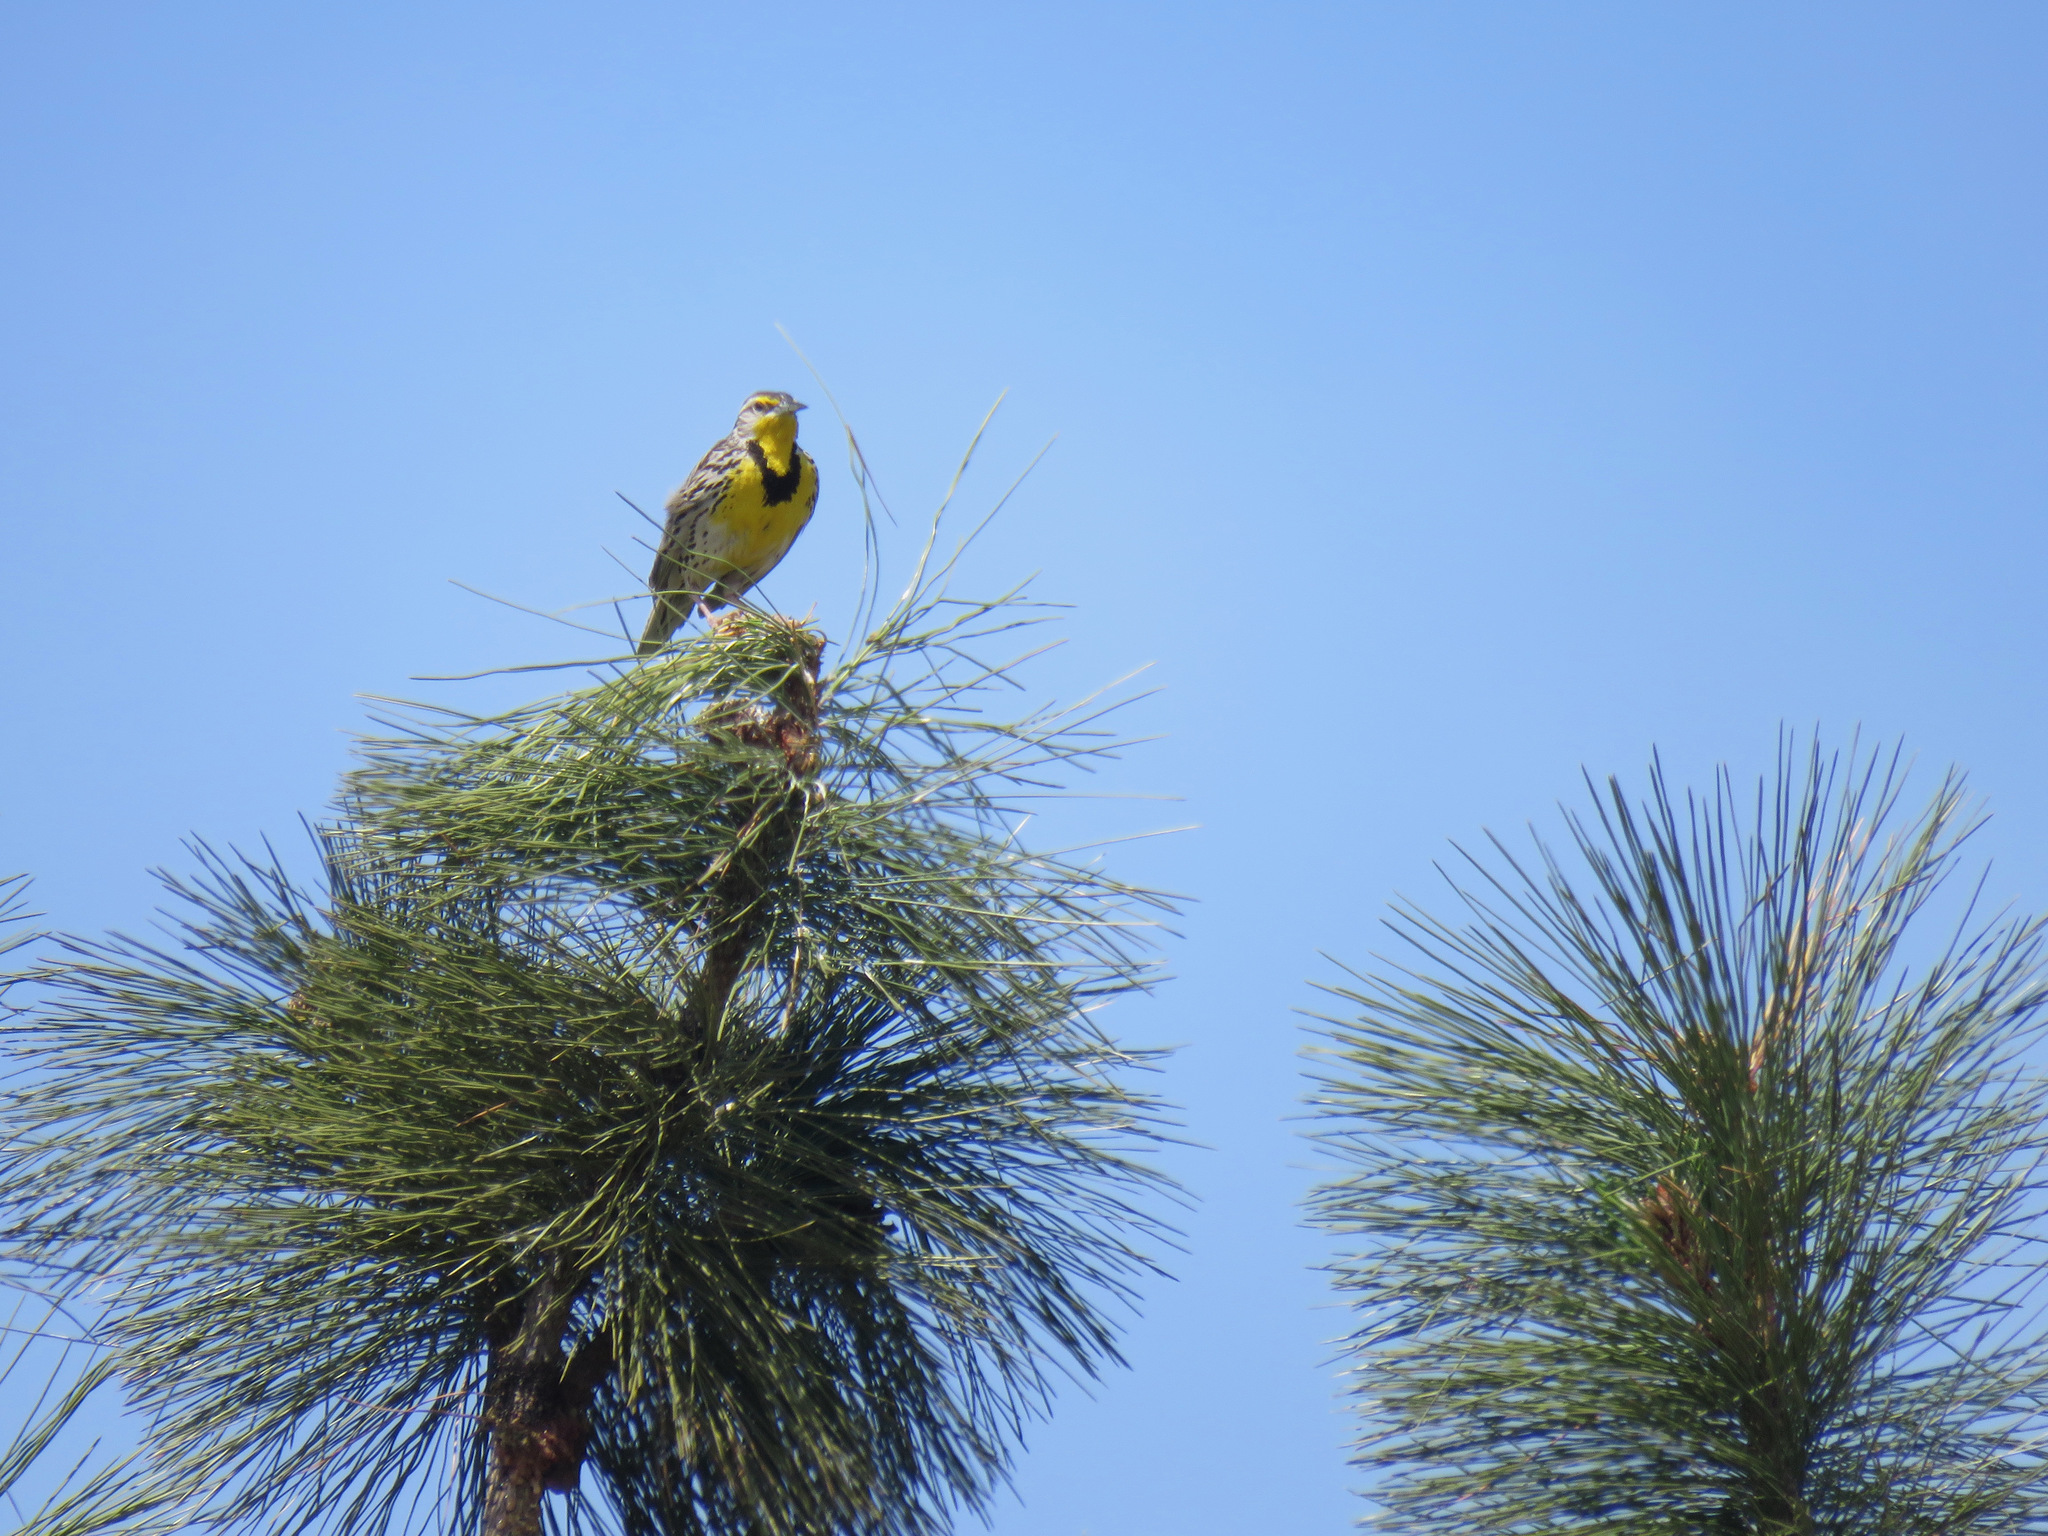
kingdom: Animalia
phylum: Chordata
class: Aves
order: Passeriformes
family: Icteridae
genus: Sturnella
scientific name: Sturnella neglecta
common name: Western meadowlark
